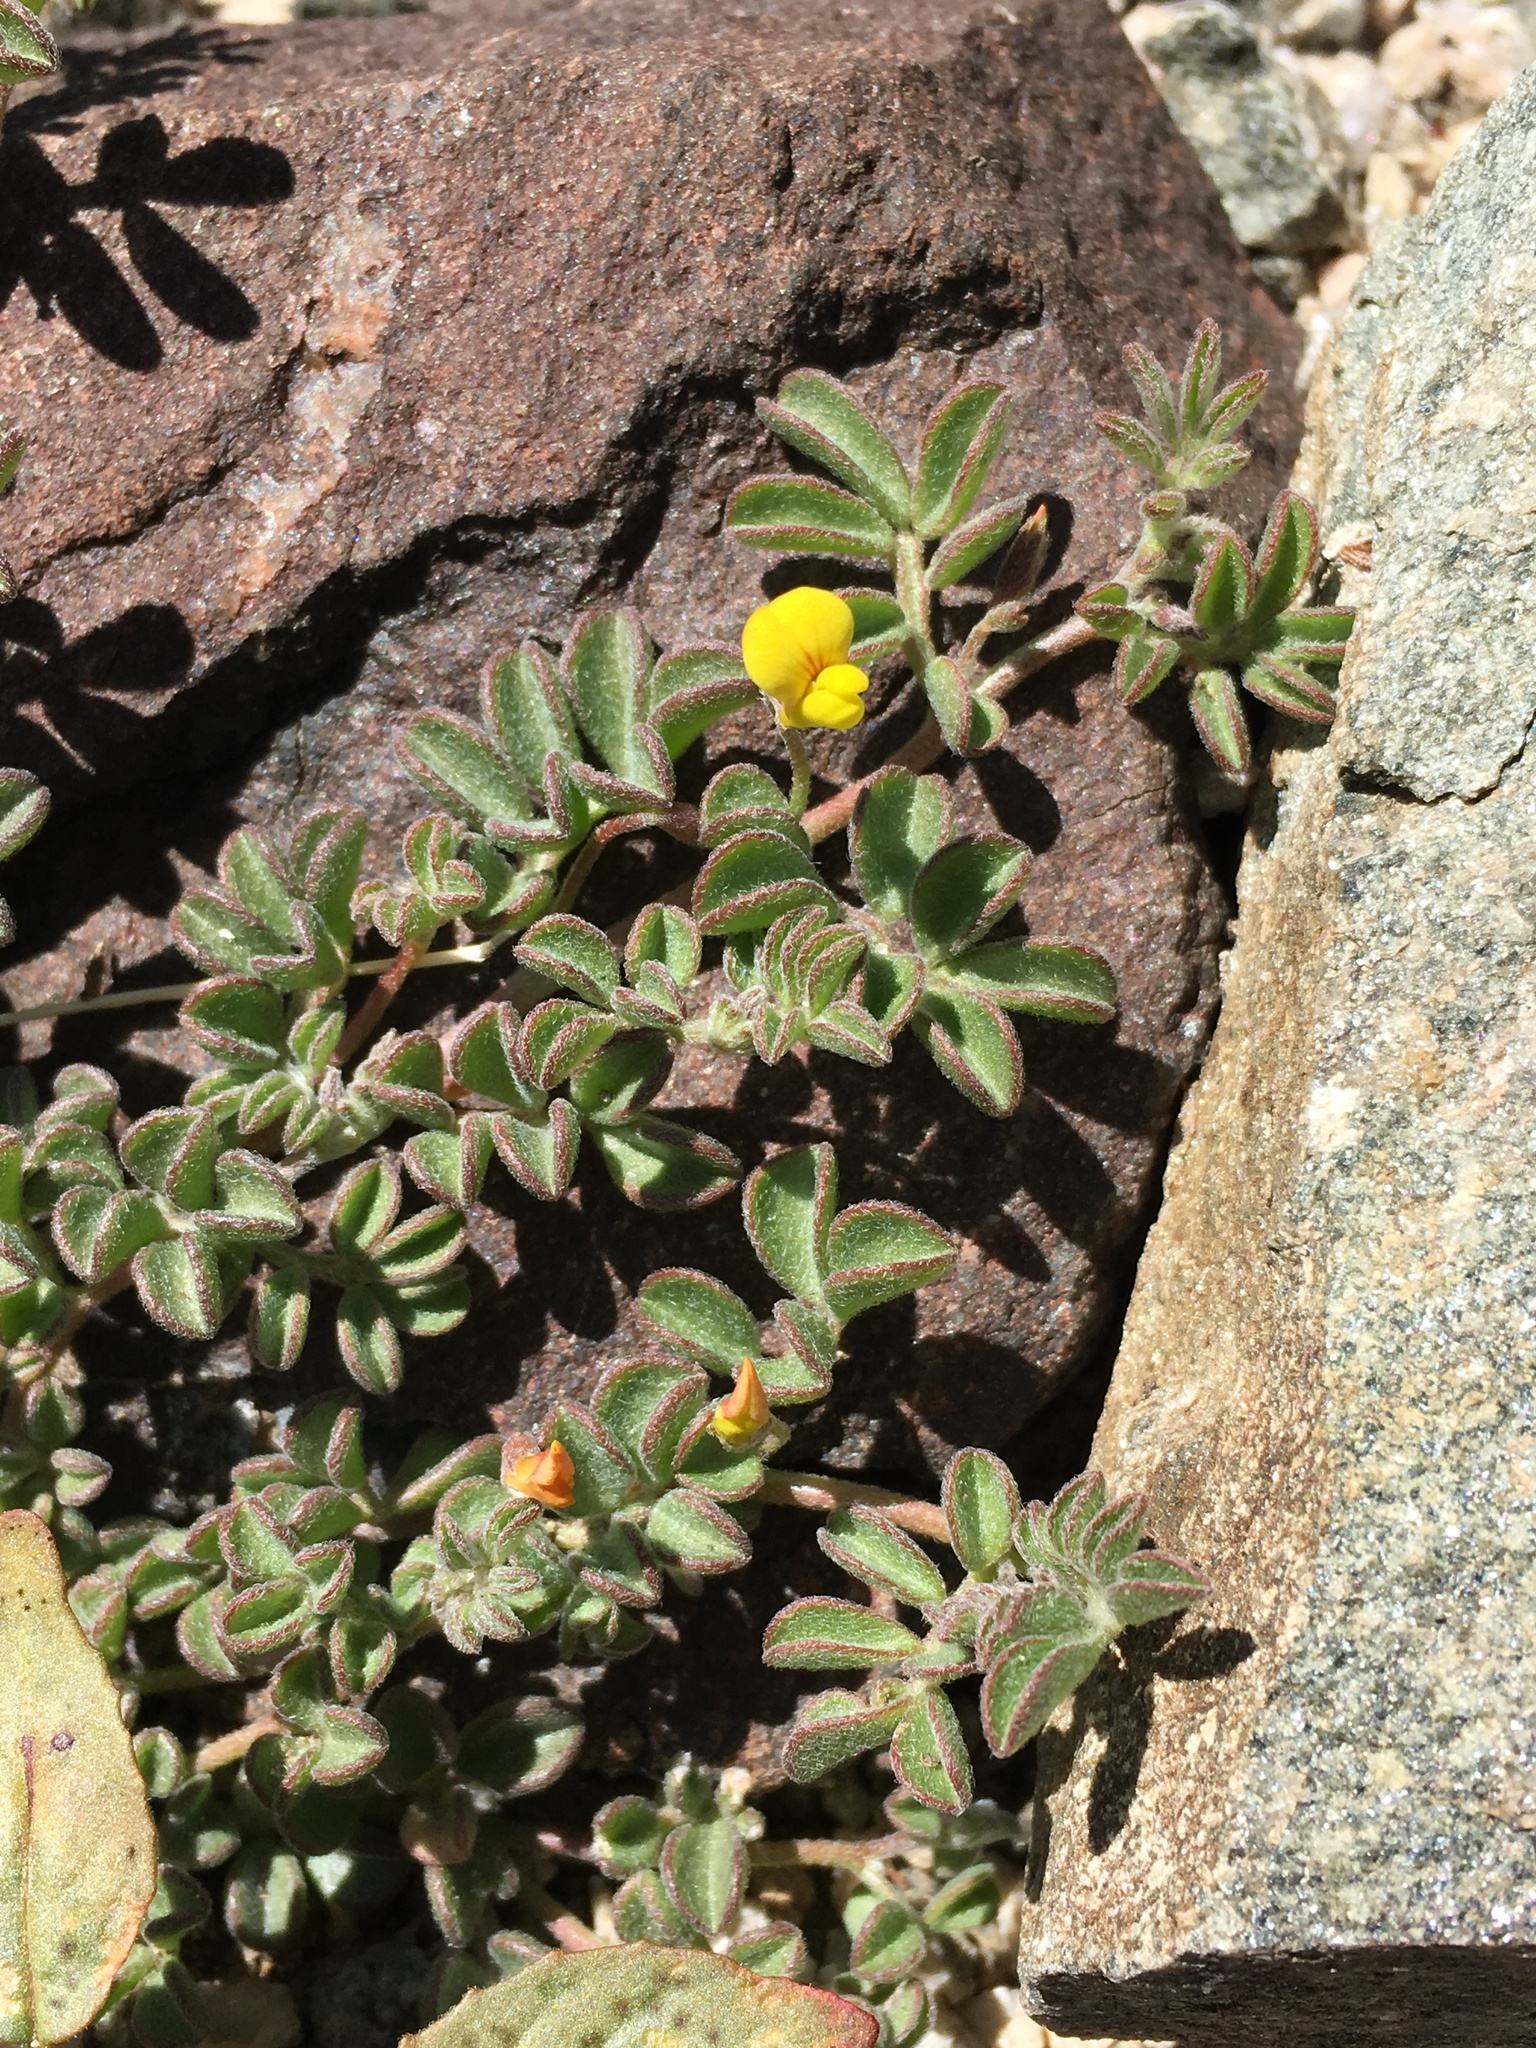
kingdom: Plantae
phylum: Tracheophyta
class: Magnoliopsida
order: Fabales
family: Fabaceae
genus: Acmispon
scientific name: Acmispon strigosus
